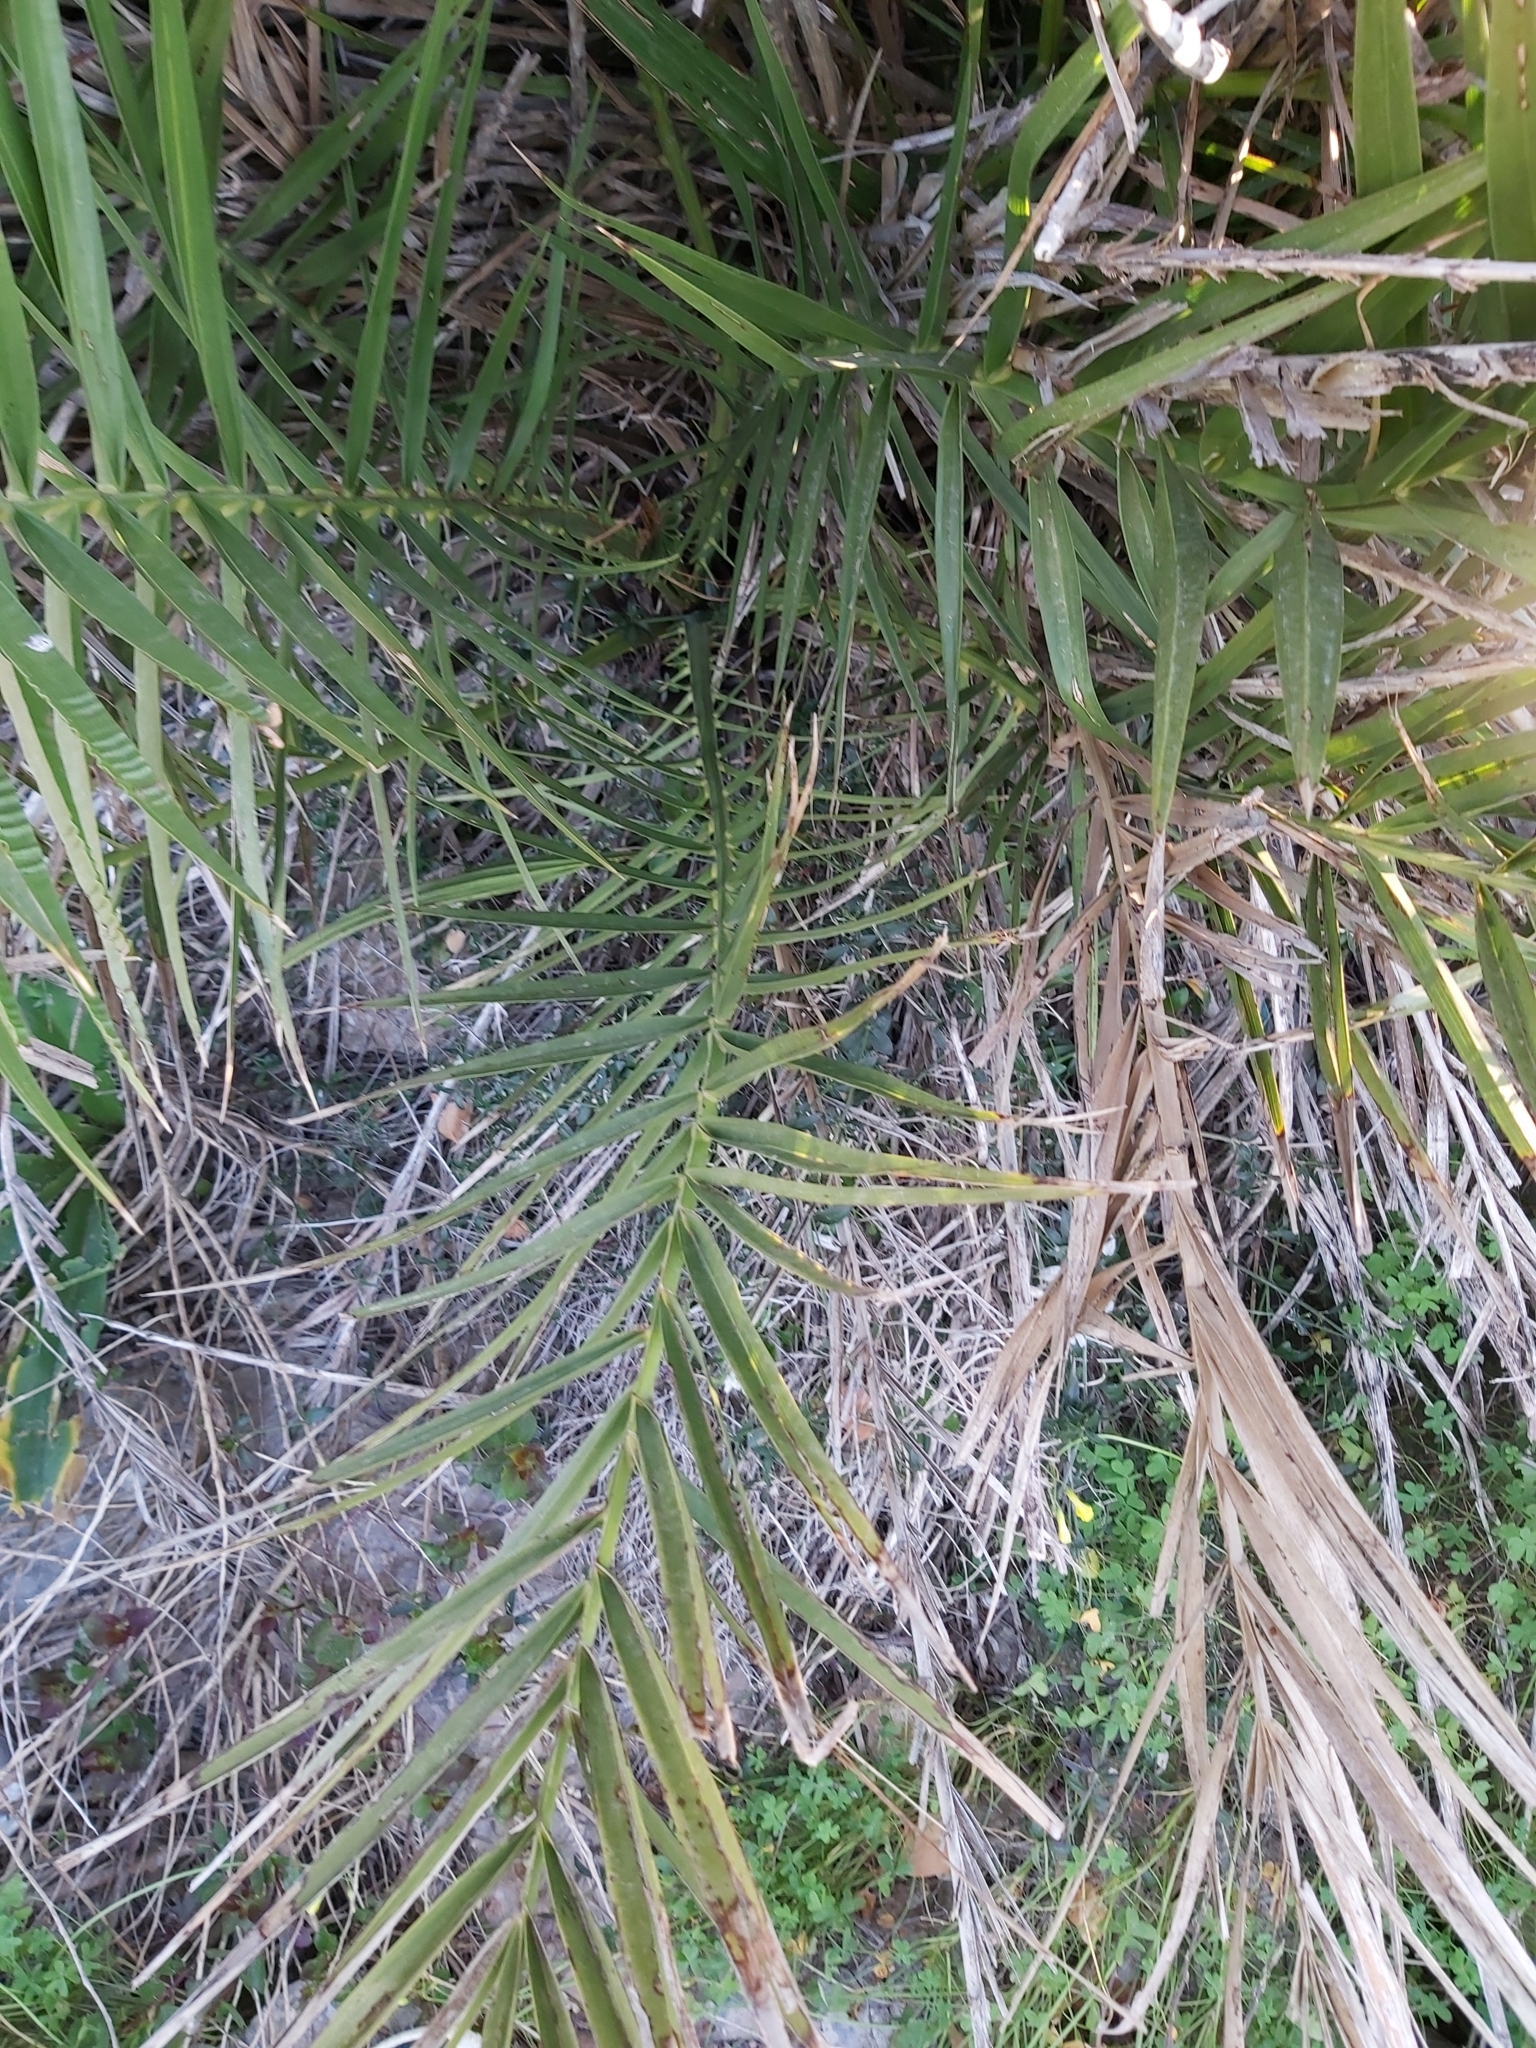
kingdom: Plantae
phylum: Tracheophyta
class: Liliopsida
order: Arecales
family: Arecaceae
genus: Phoenix
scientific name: Phoenix dactylifera
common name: Date palm
